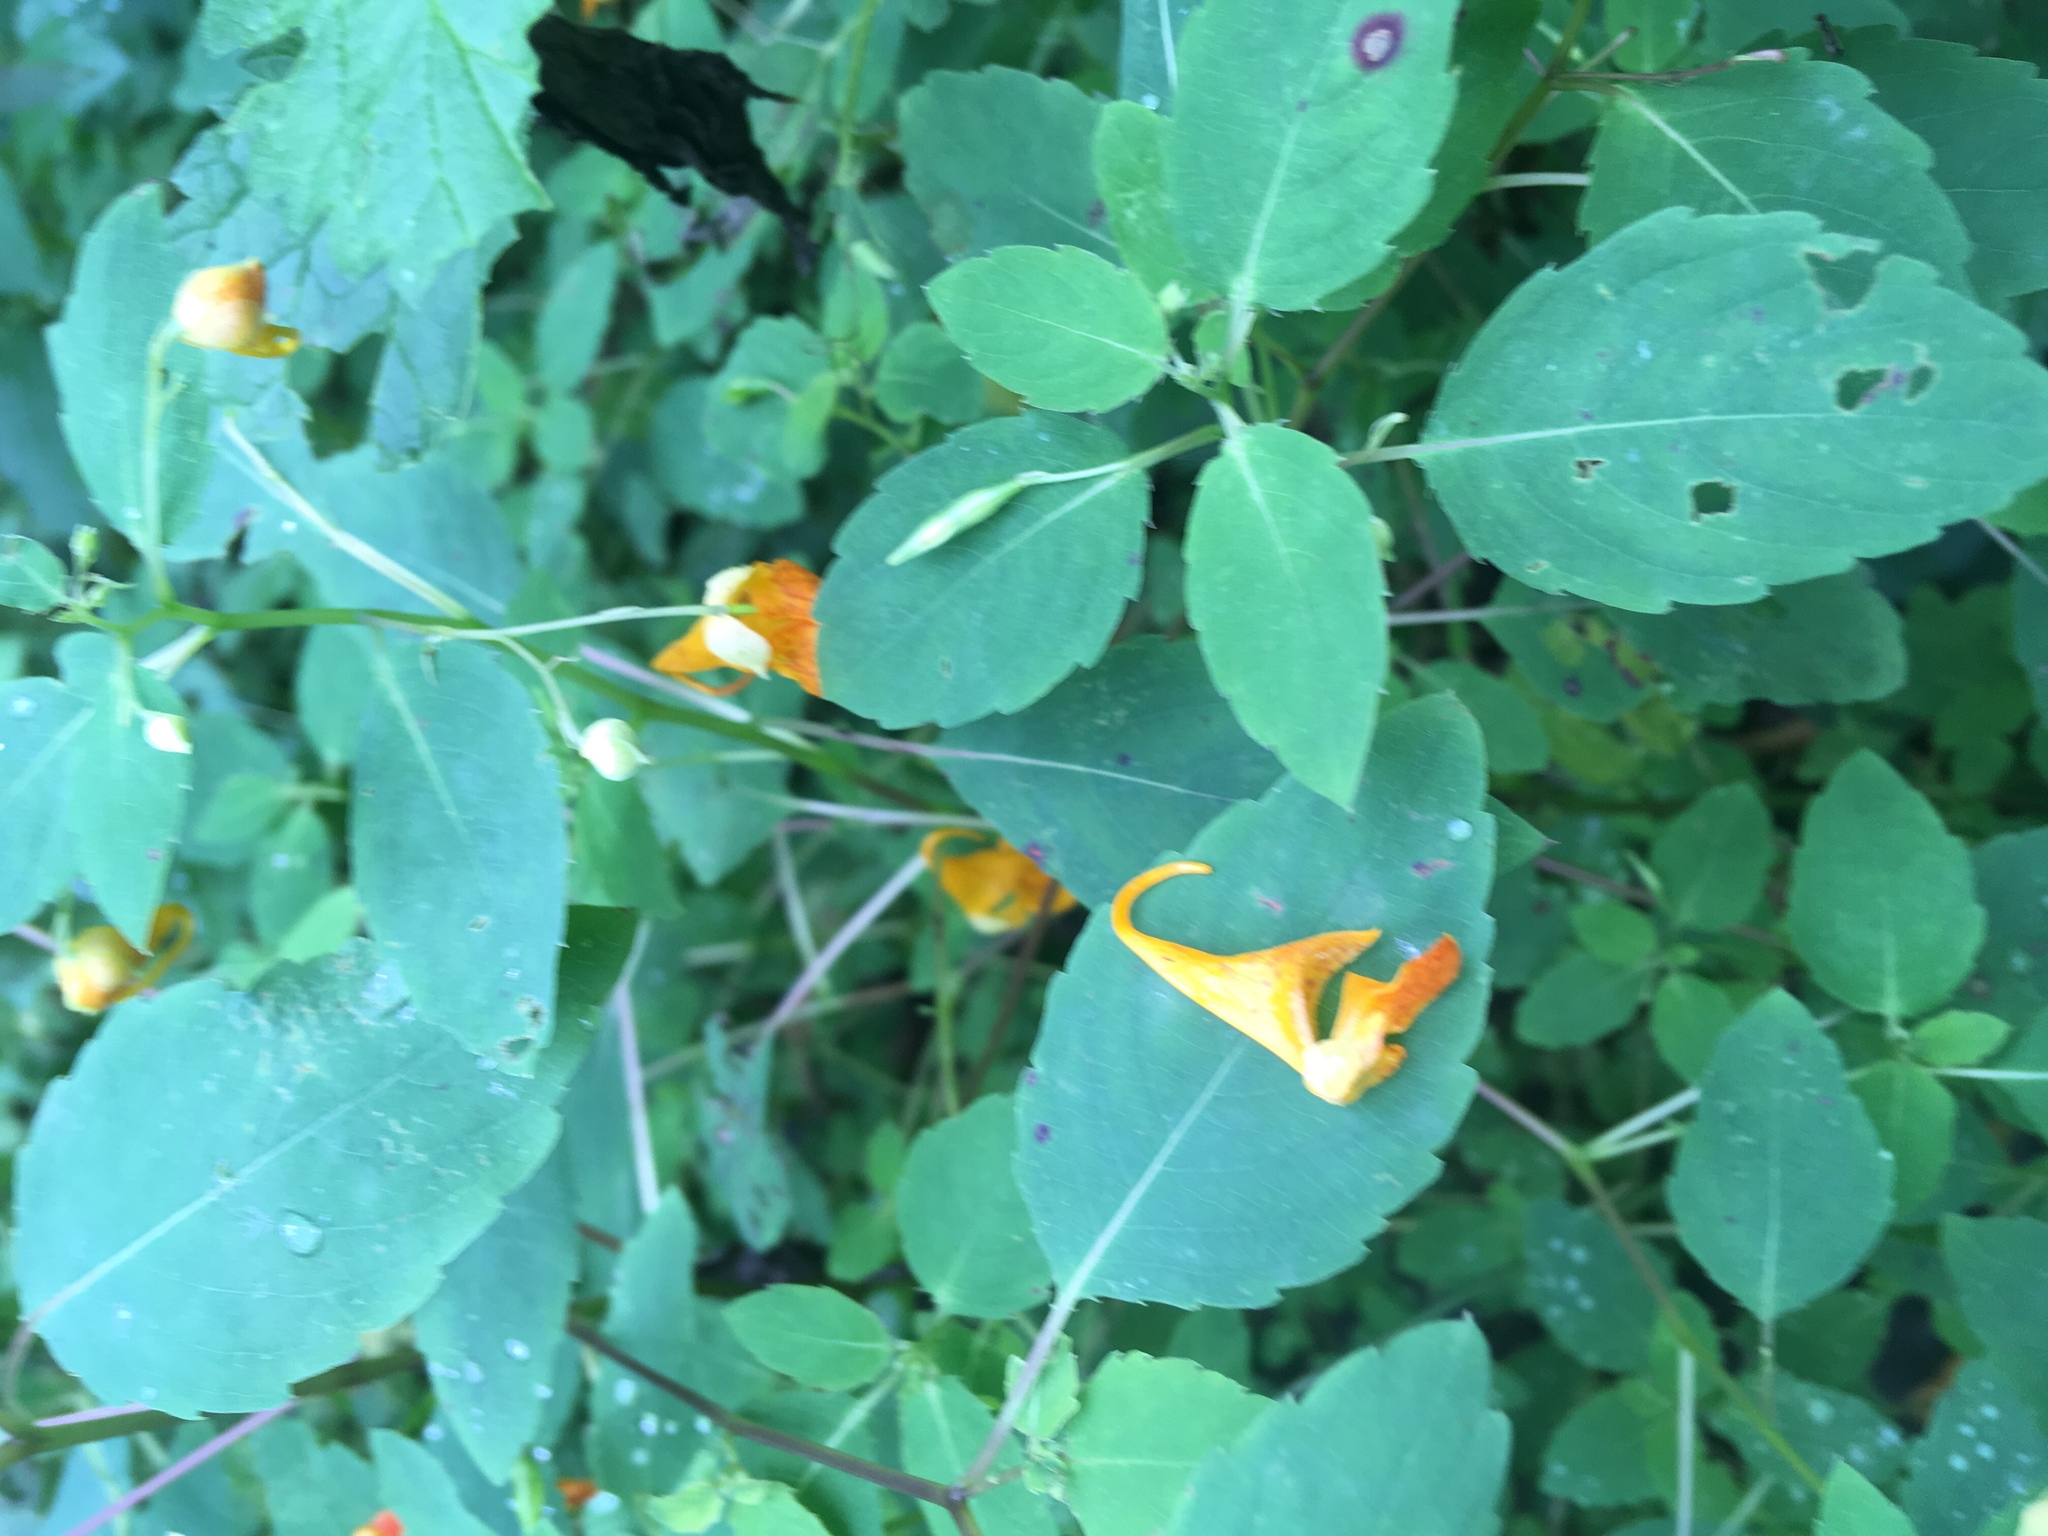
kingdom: Plantae
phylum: Tracheophyta
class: Magnoliopsida
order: Ericales
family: Balsaminaceae
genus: Impatiens
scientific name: Impatiens capensis
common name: Orange balsam
